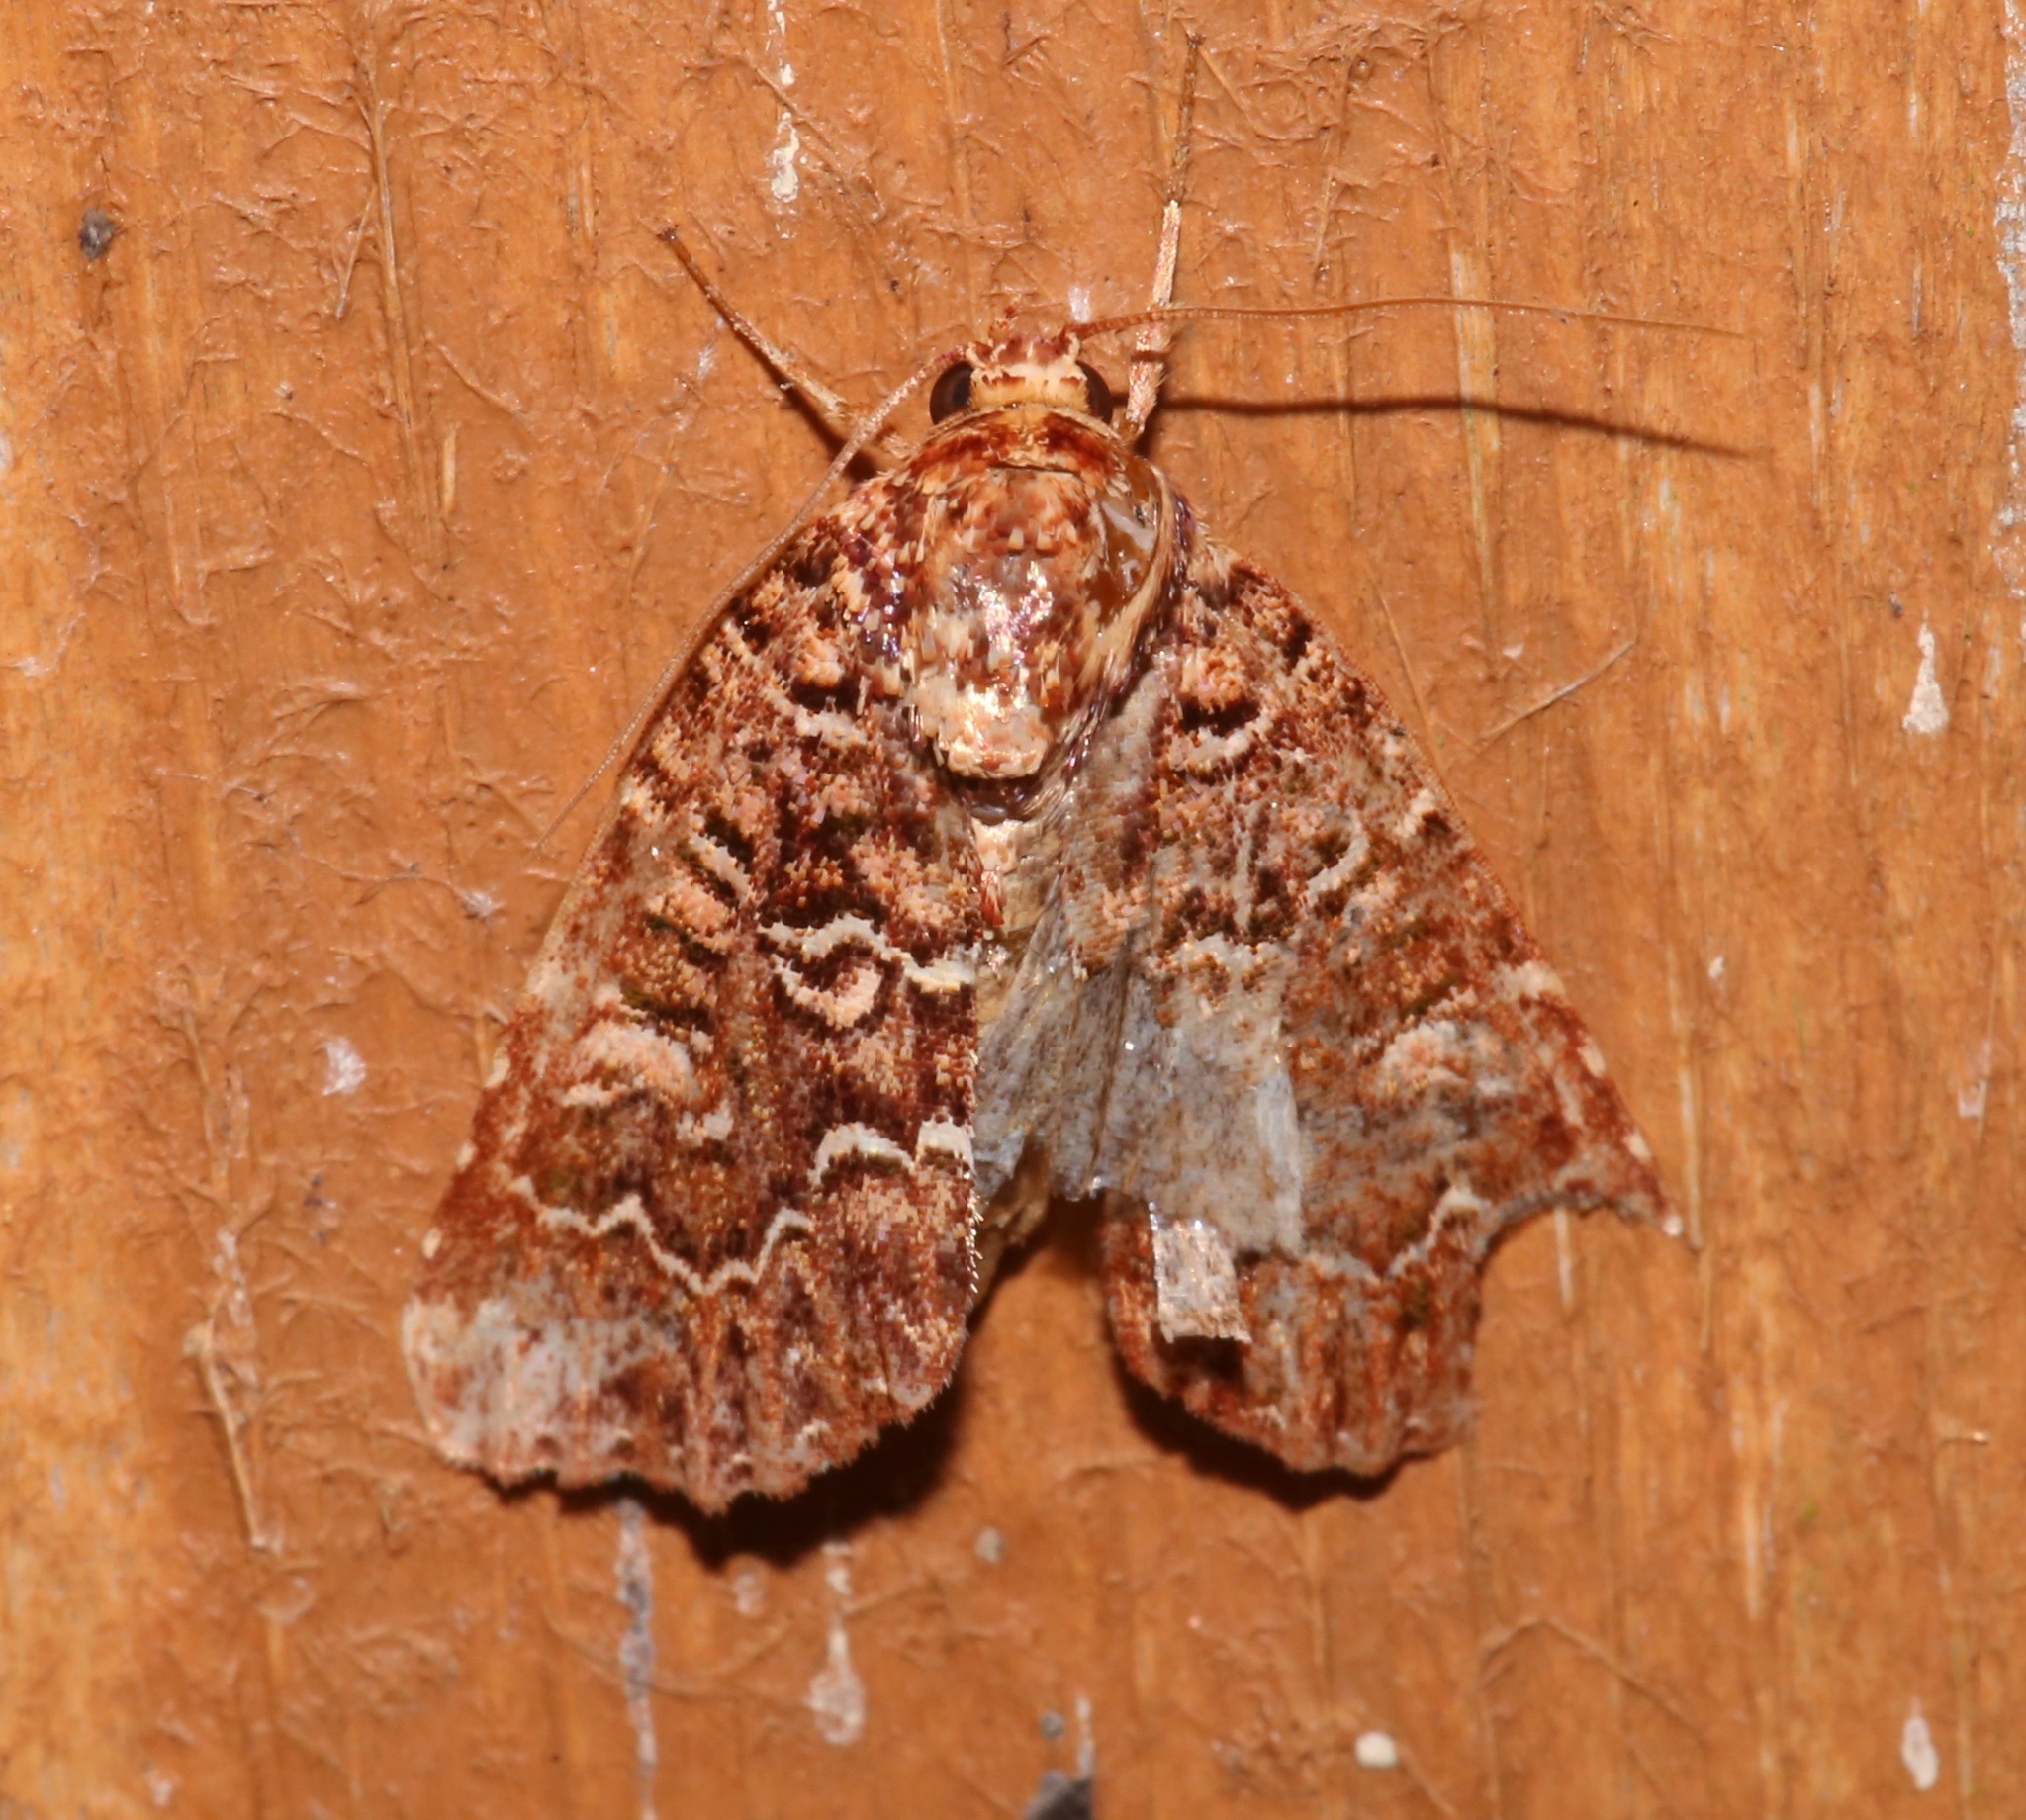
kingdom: Animalia
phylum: Arthropoda
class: Insecta
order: Lepidoptera
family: Noctuidae
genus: Callopistria
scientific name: Callopistria granitosa
